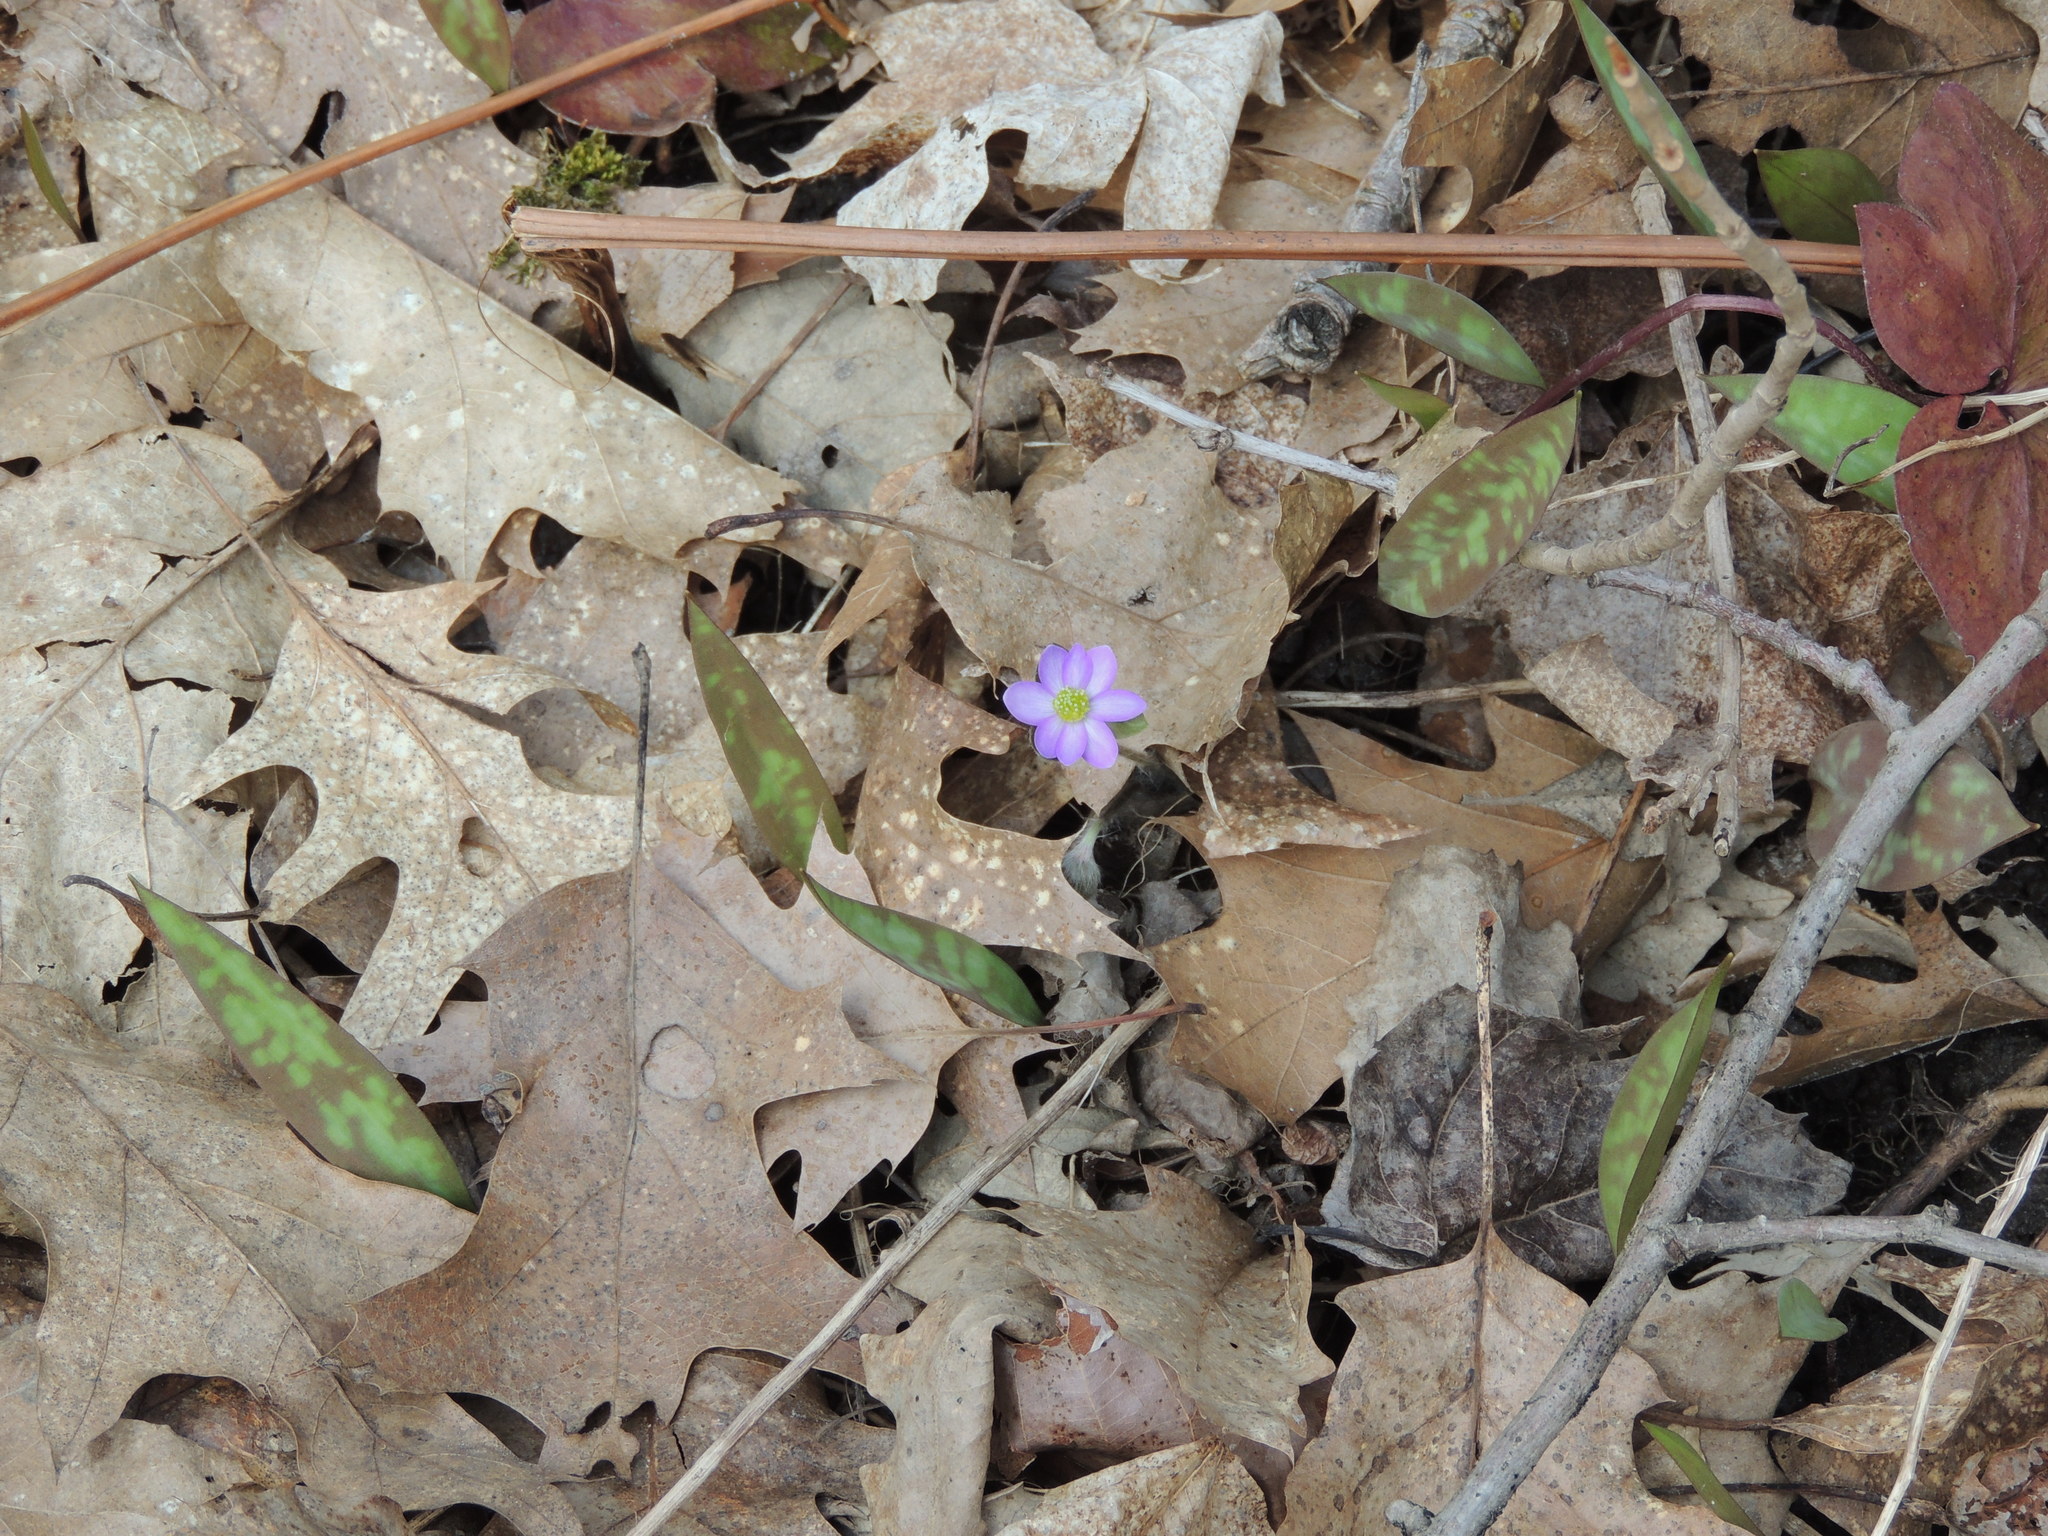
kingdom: Plantae
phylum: Tracheophyta
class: Magnoliopsida
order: Ranunculales
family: Ranunculaceae
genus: Hepatica
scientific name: Hepatica acutiloba
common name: Sharp-lobed hepatica
